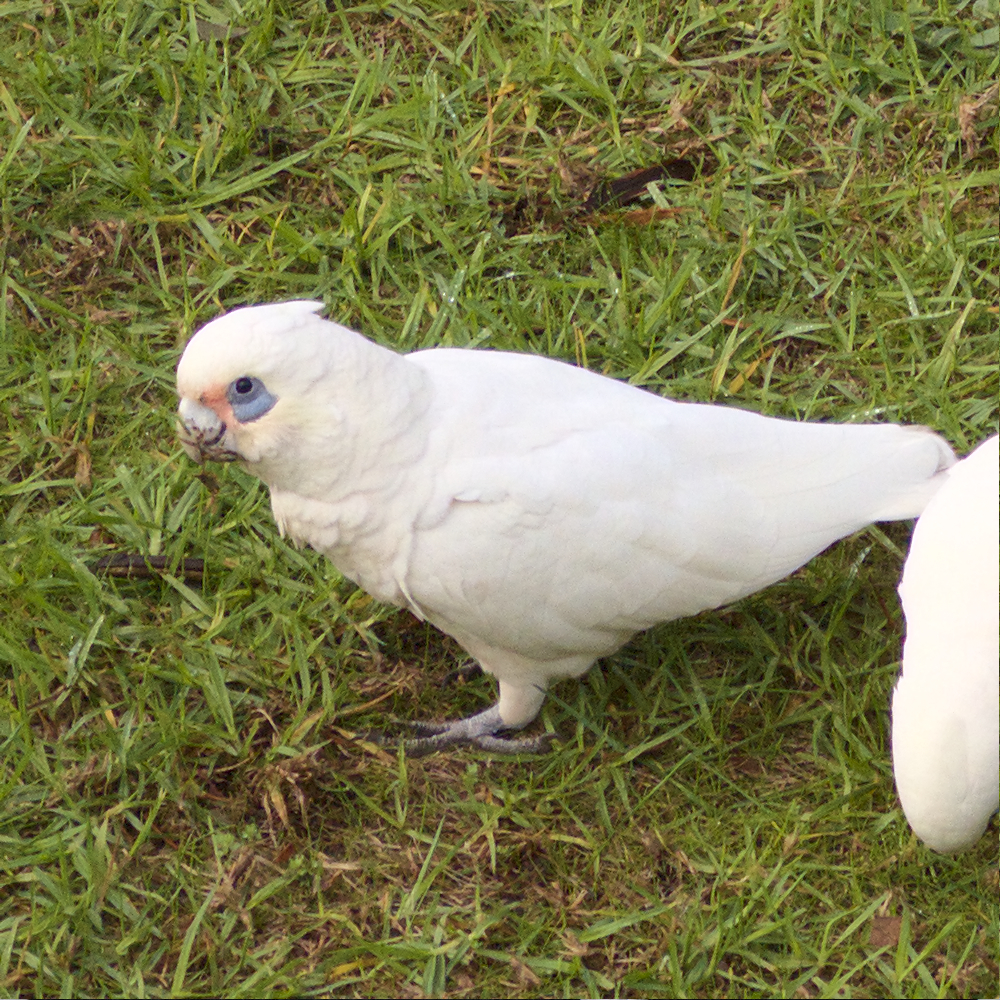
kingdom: Animalia
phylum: Chordata
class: Aves
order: Psittaciformes
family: Psittacidae
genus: Cacatua
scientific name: Cacatua sanguinea
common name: Little corella
